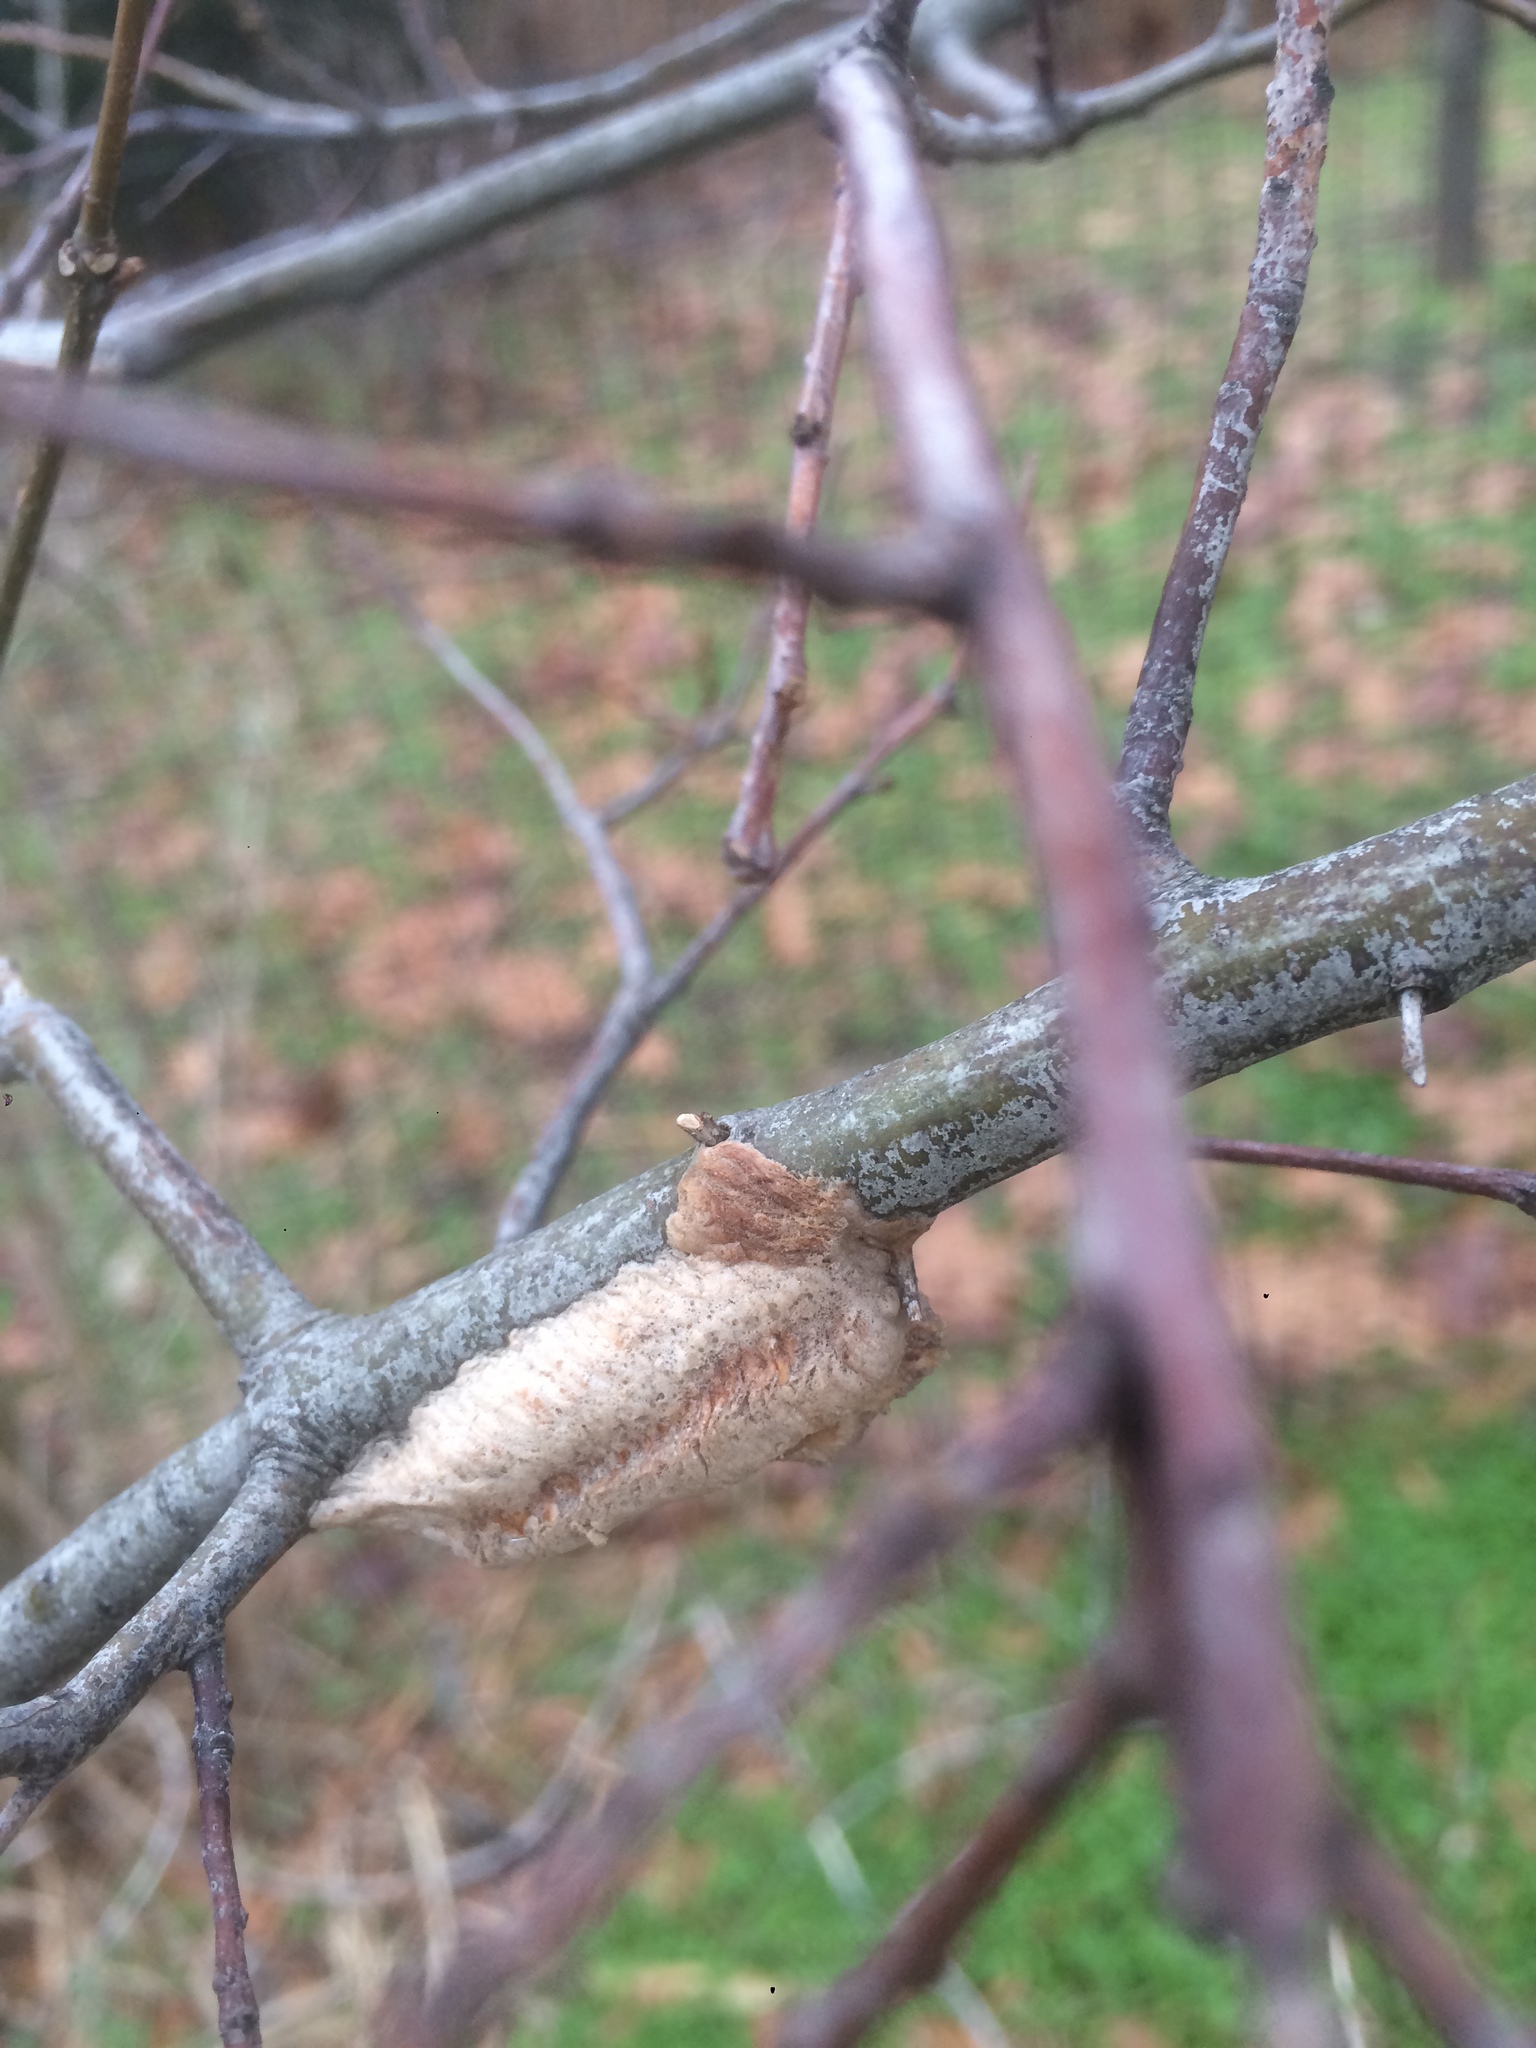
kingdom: Animalia
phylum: Arthropoda
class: Insecta
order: Mantodea
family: Mantidae
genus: Tenodera
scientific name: Tenodera angustipennis
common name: Asian mantis
